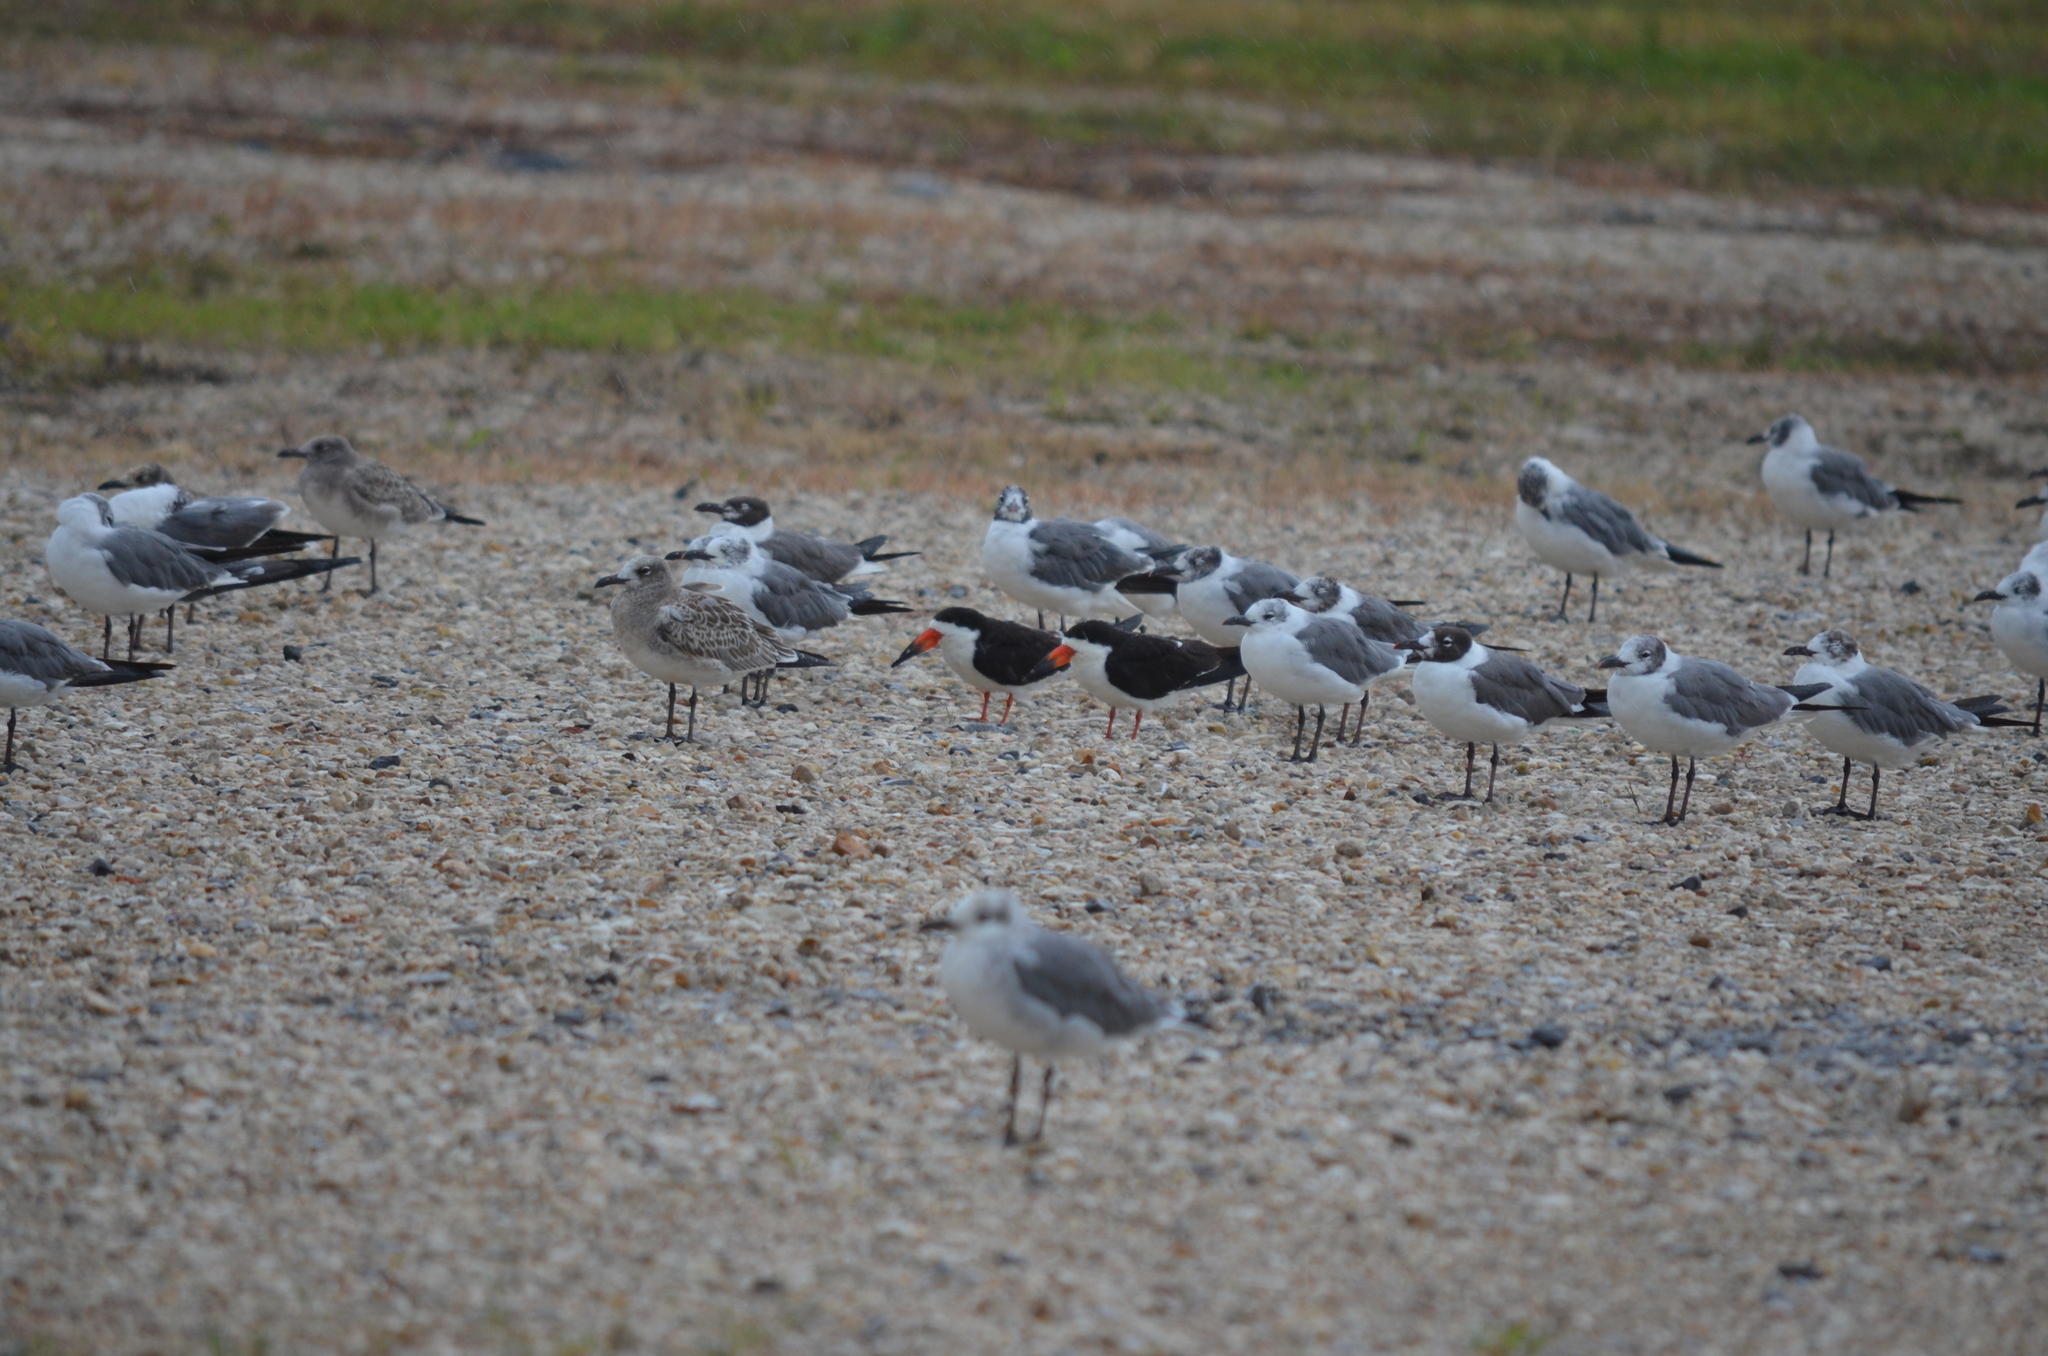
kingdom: Animalia
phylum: Chordata
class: Aves
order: Charadriiformes
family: Laridae
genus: Rynchops
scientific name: Rynchops niger
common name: Black skimmer
